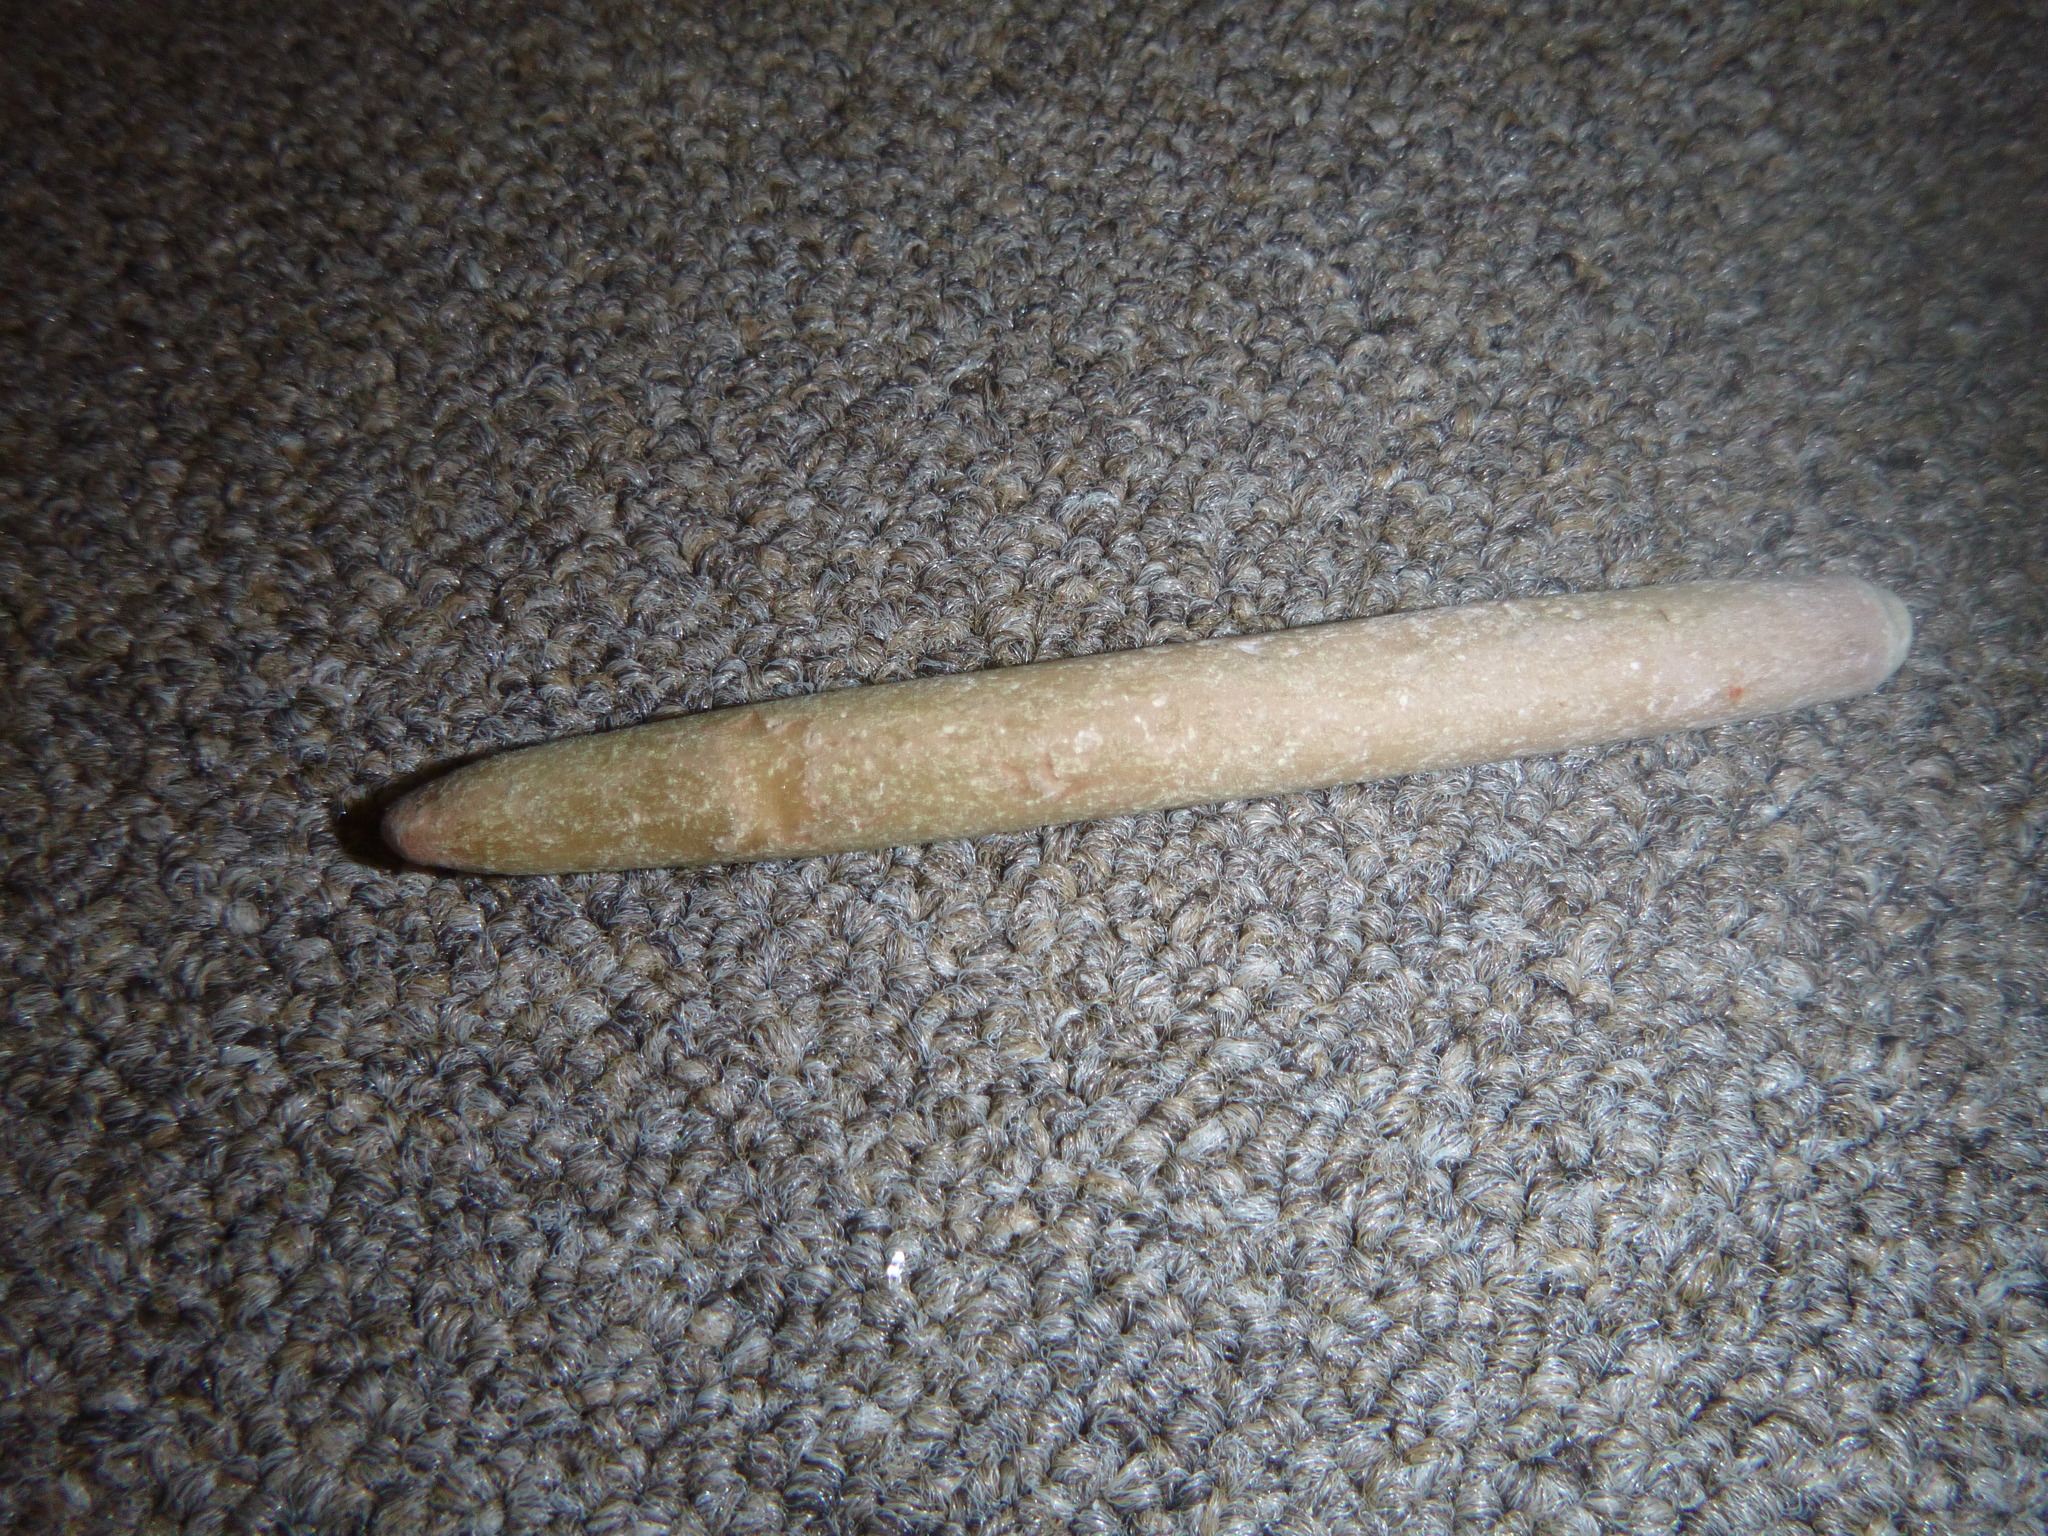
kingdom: Animalia
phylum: Echinodermata
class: Echinoidea
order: Camarodonta
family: Echinometridae
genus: Heterocentrotus
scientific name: Heterocentrotus
